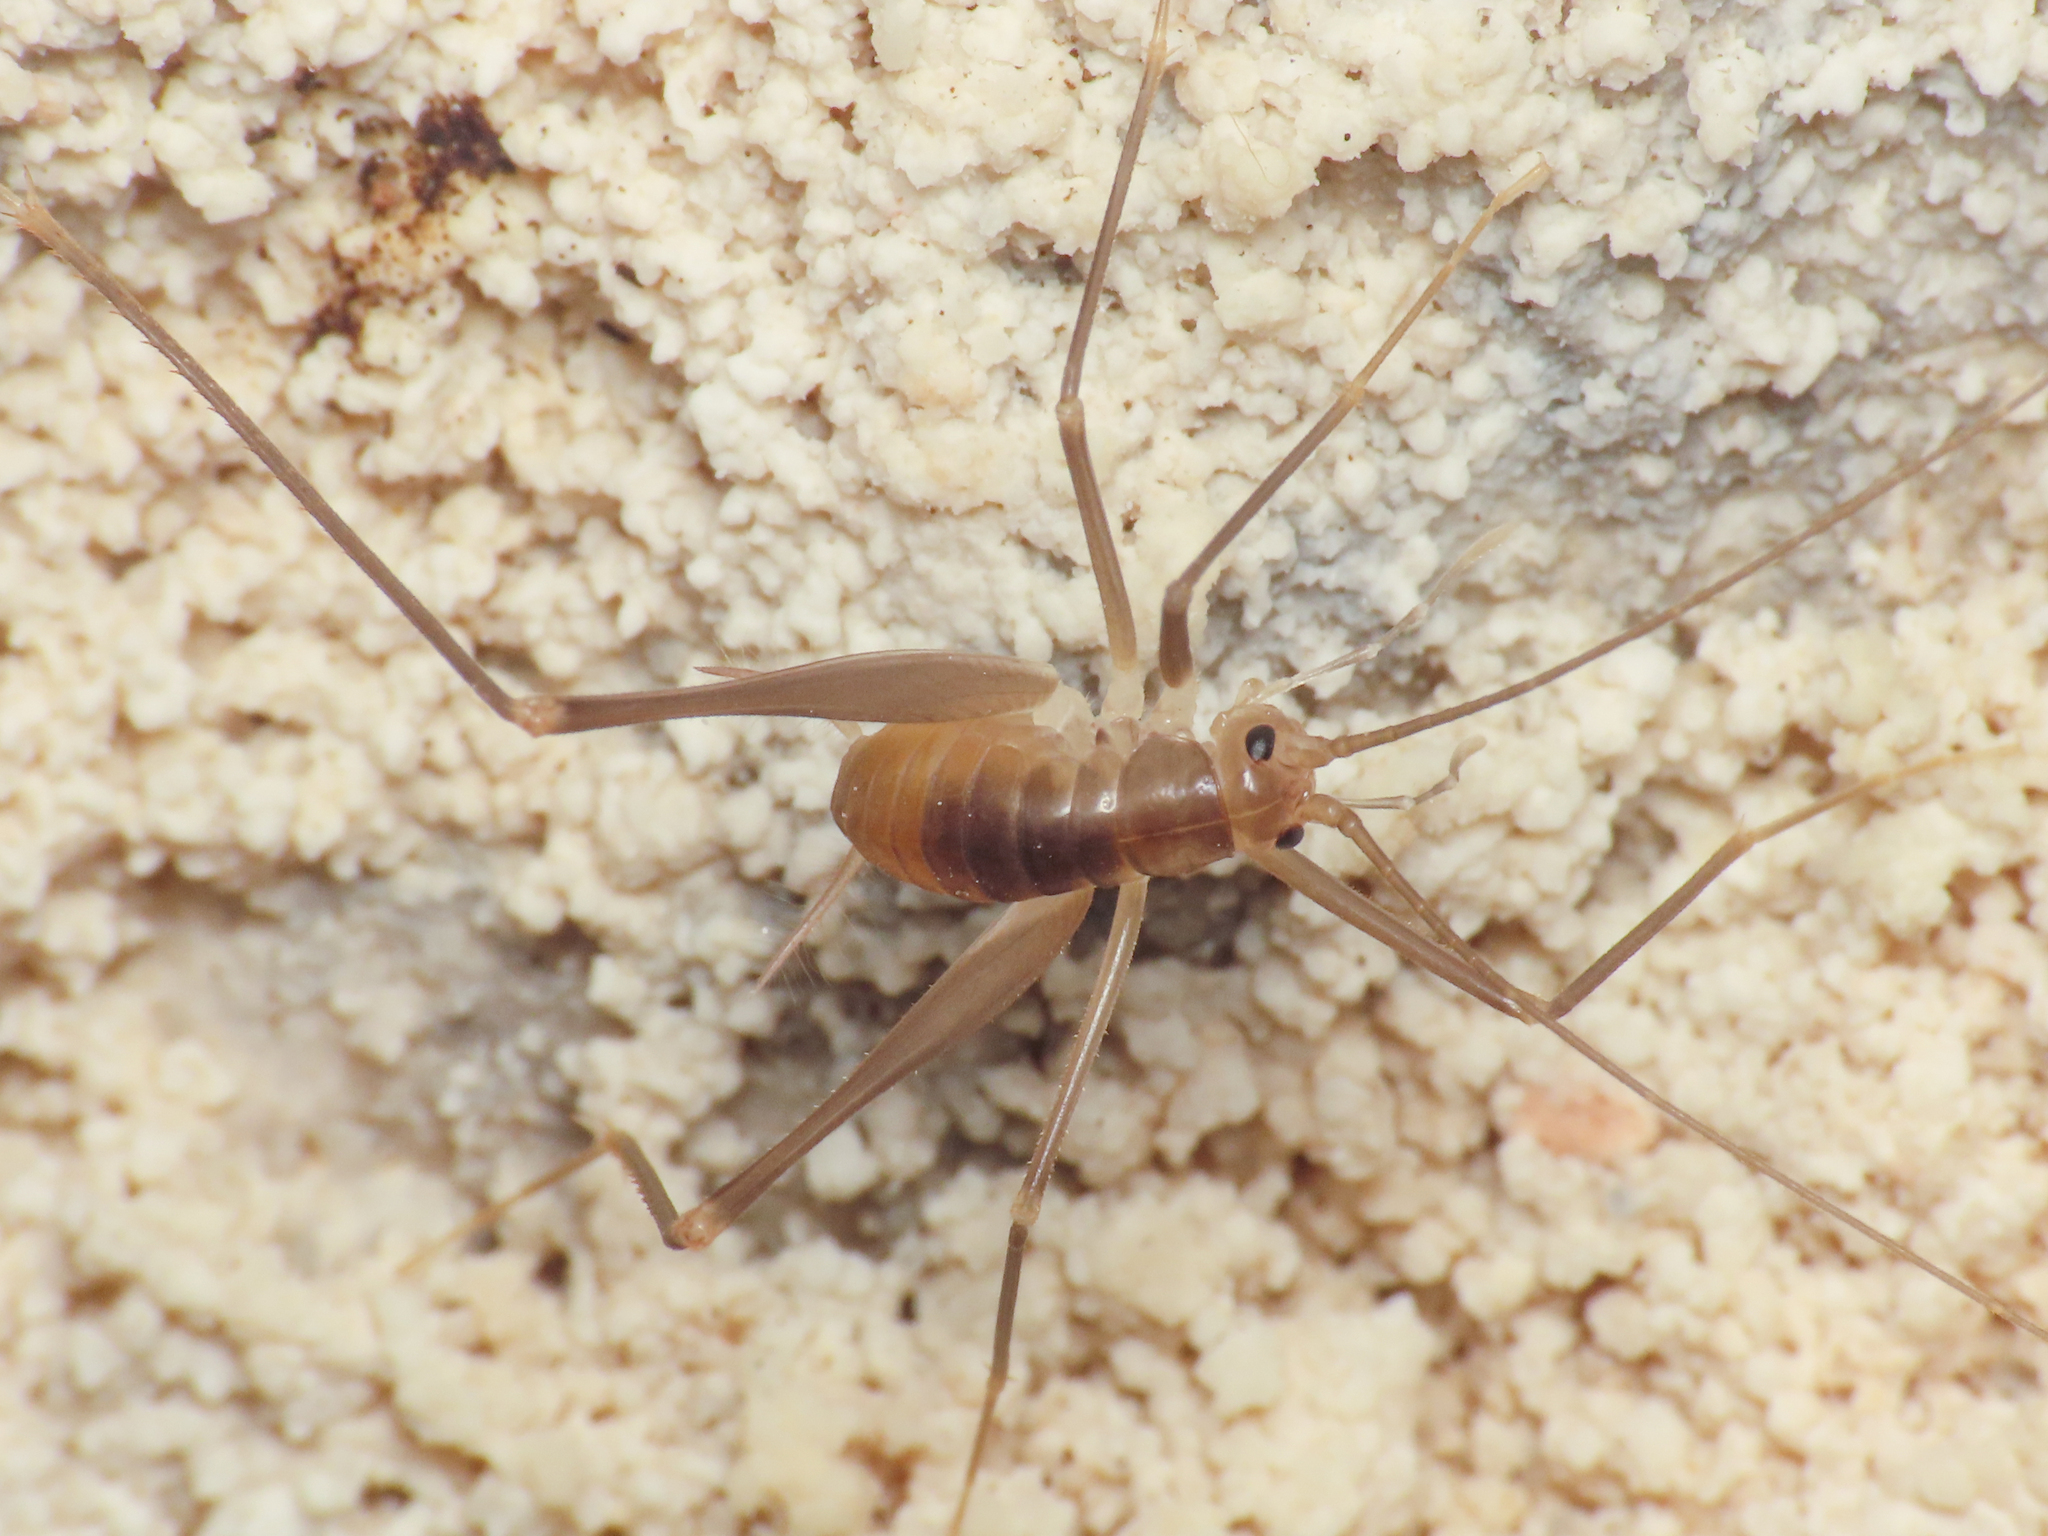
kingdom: Animalia
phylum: Arthropoda
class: Insecta
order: Orthoptera
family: Rhaphidophoridae
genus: Dolichopoda
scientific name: Dolichopoda laetitiae
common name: Laetitia's cave cricket
